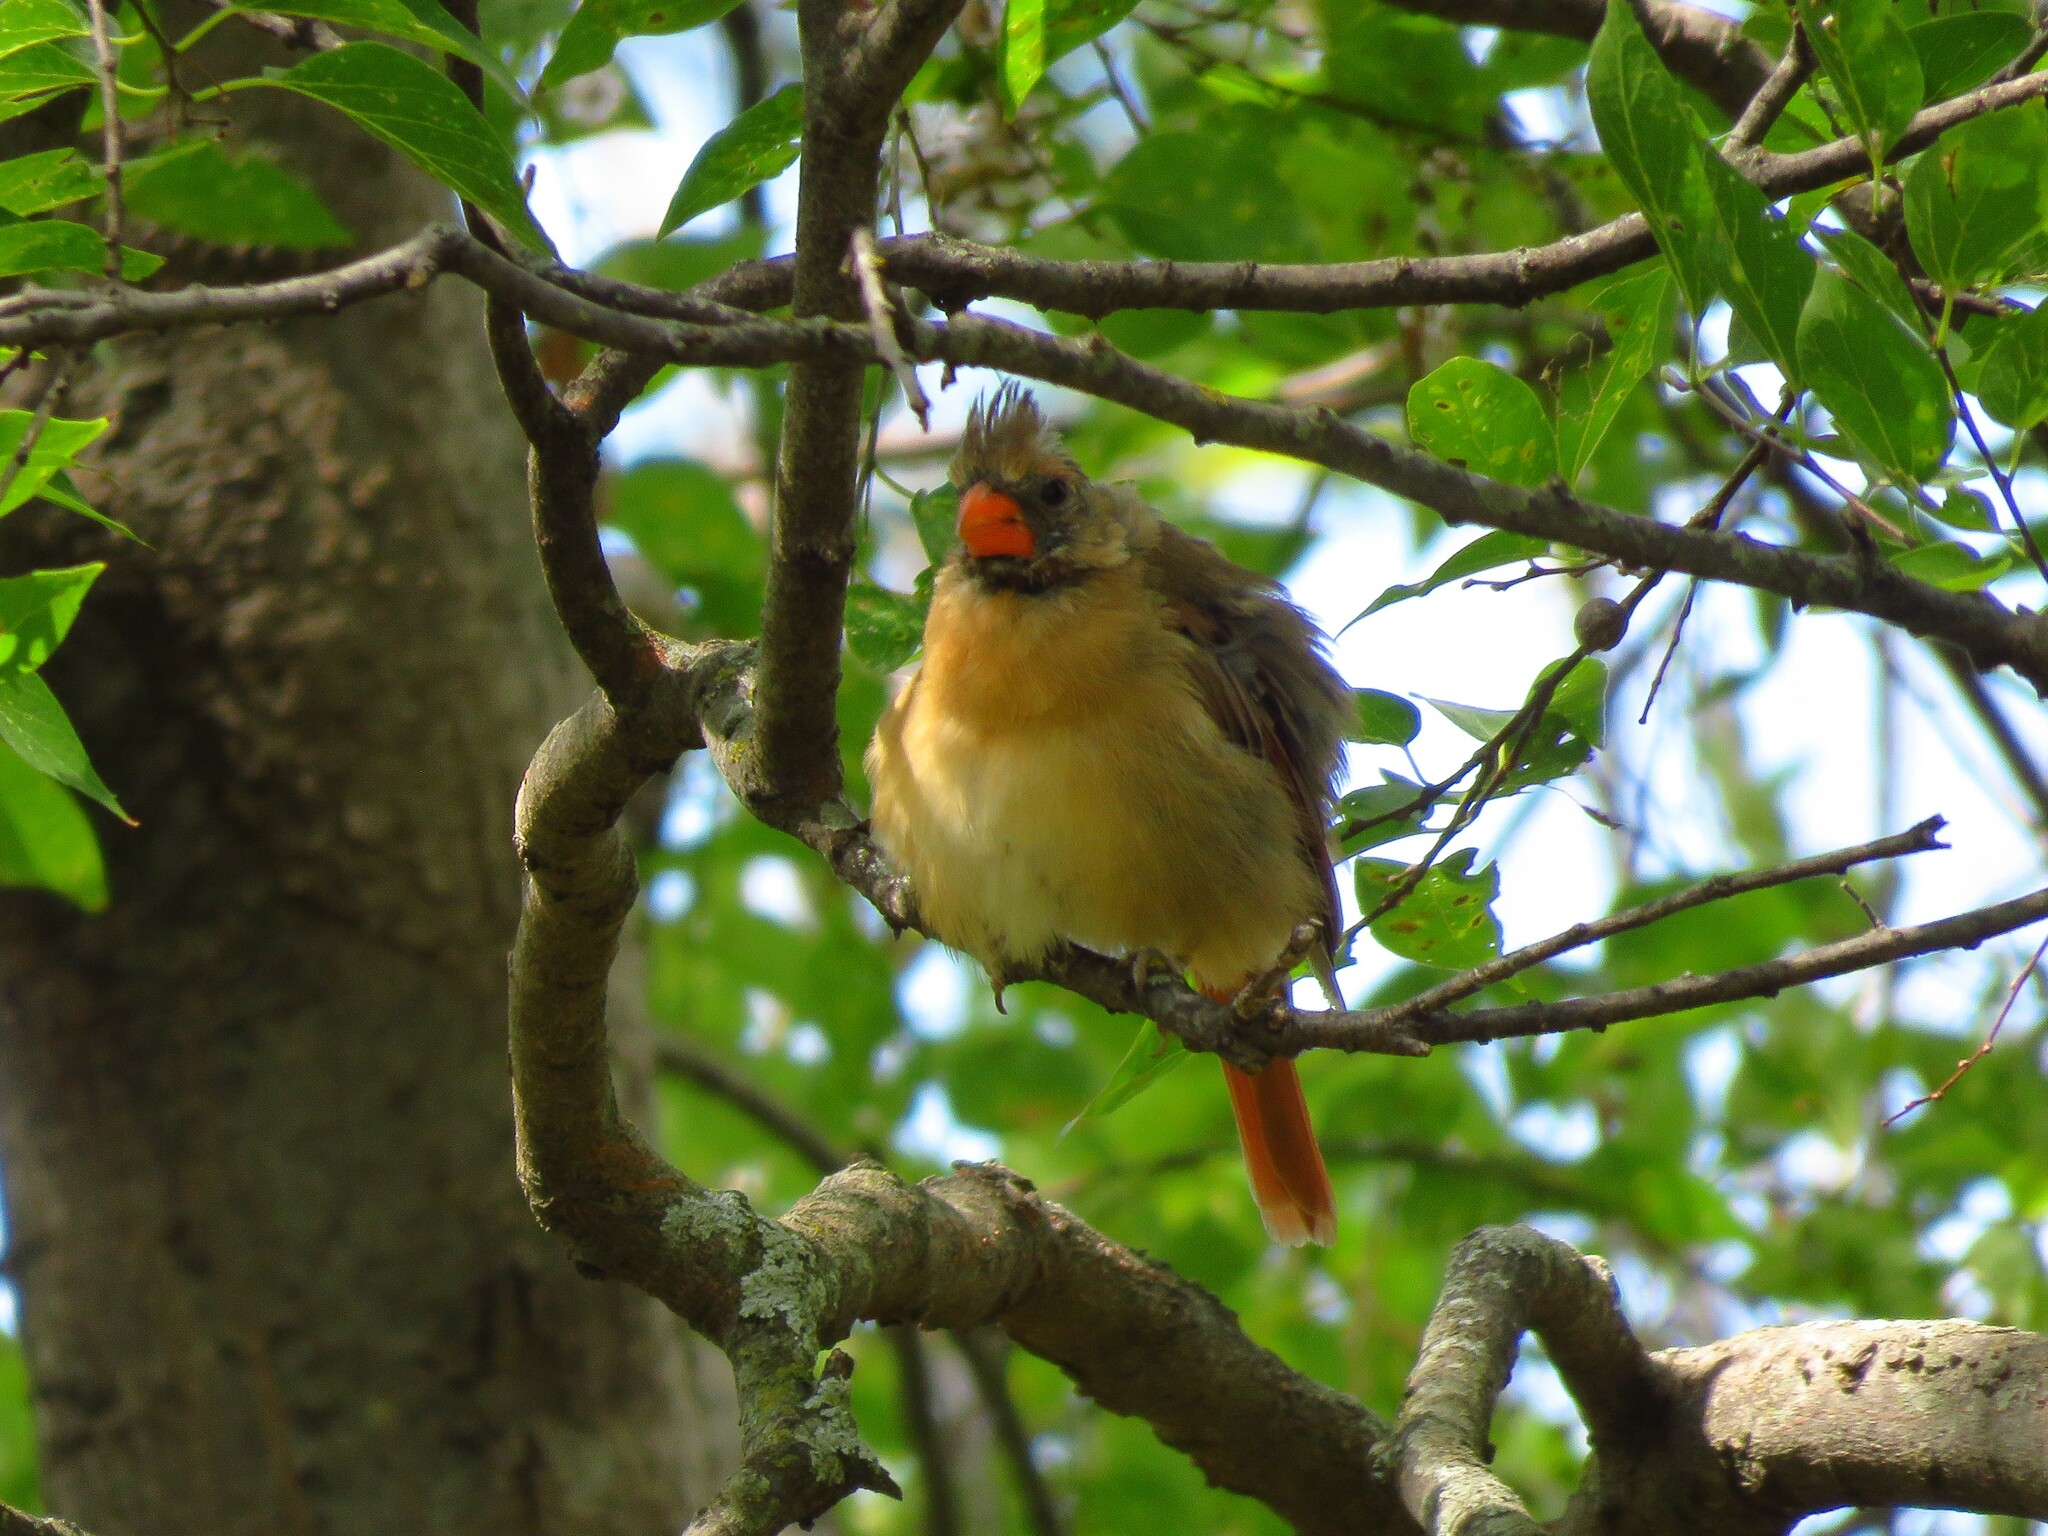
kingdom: Animalia
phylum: Chordata
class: Aves
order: Passeriformes
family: Cardinalidae
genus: Cardinalis
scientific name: Cardinalis cardinalis
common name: Northern cardinal
